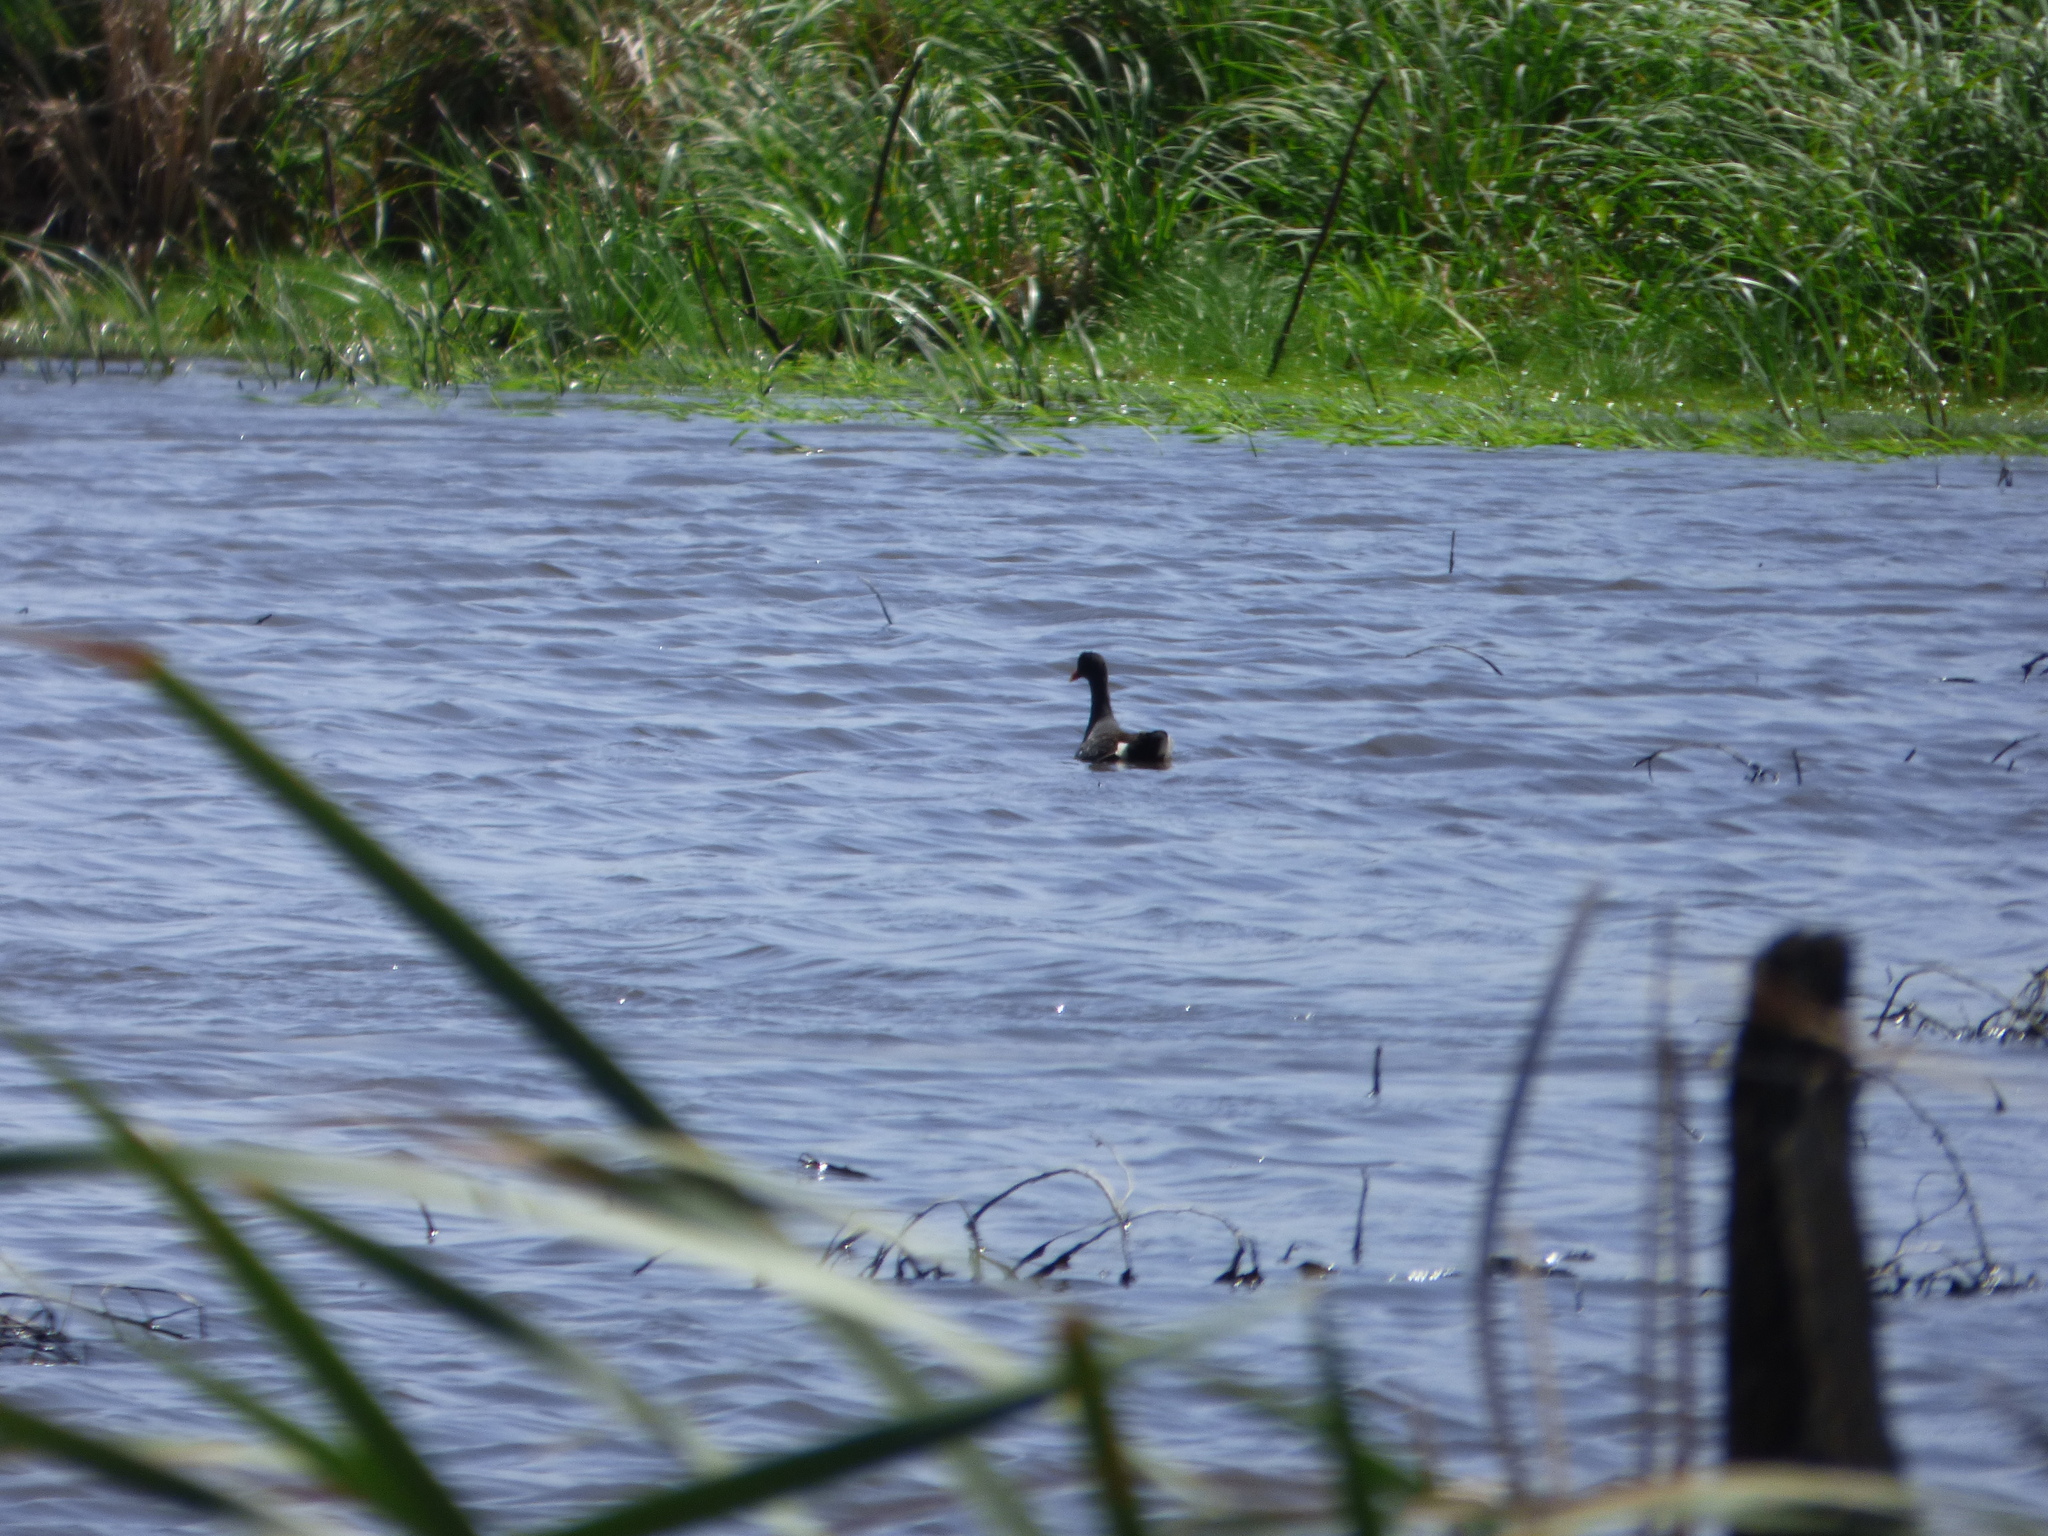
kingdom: Animalia
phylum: Chordata
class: Aves
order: Gruiformes
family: Rallidae
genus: Gallinula
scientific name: Gallinula chloropus
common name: Common moorhen
